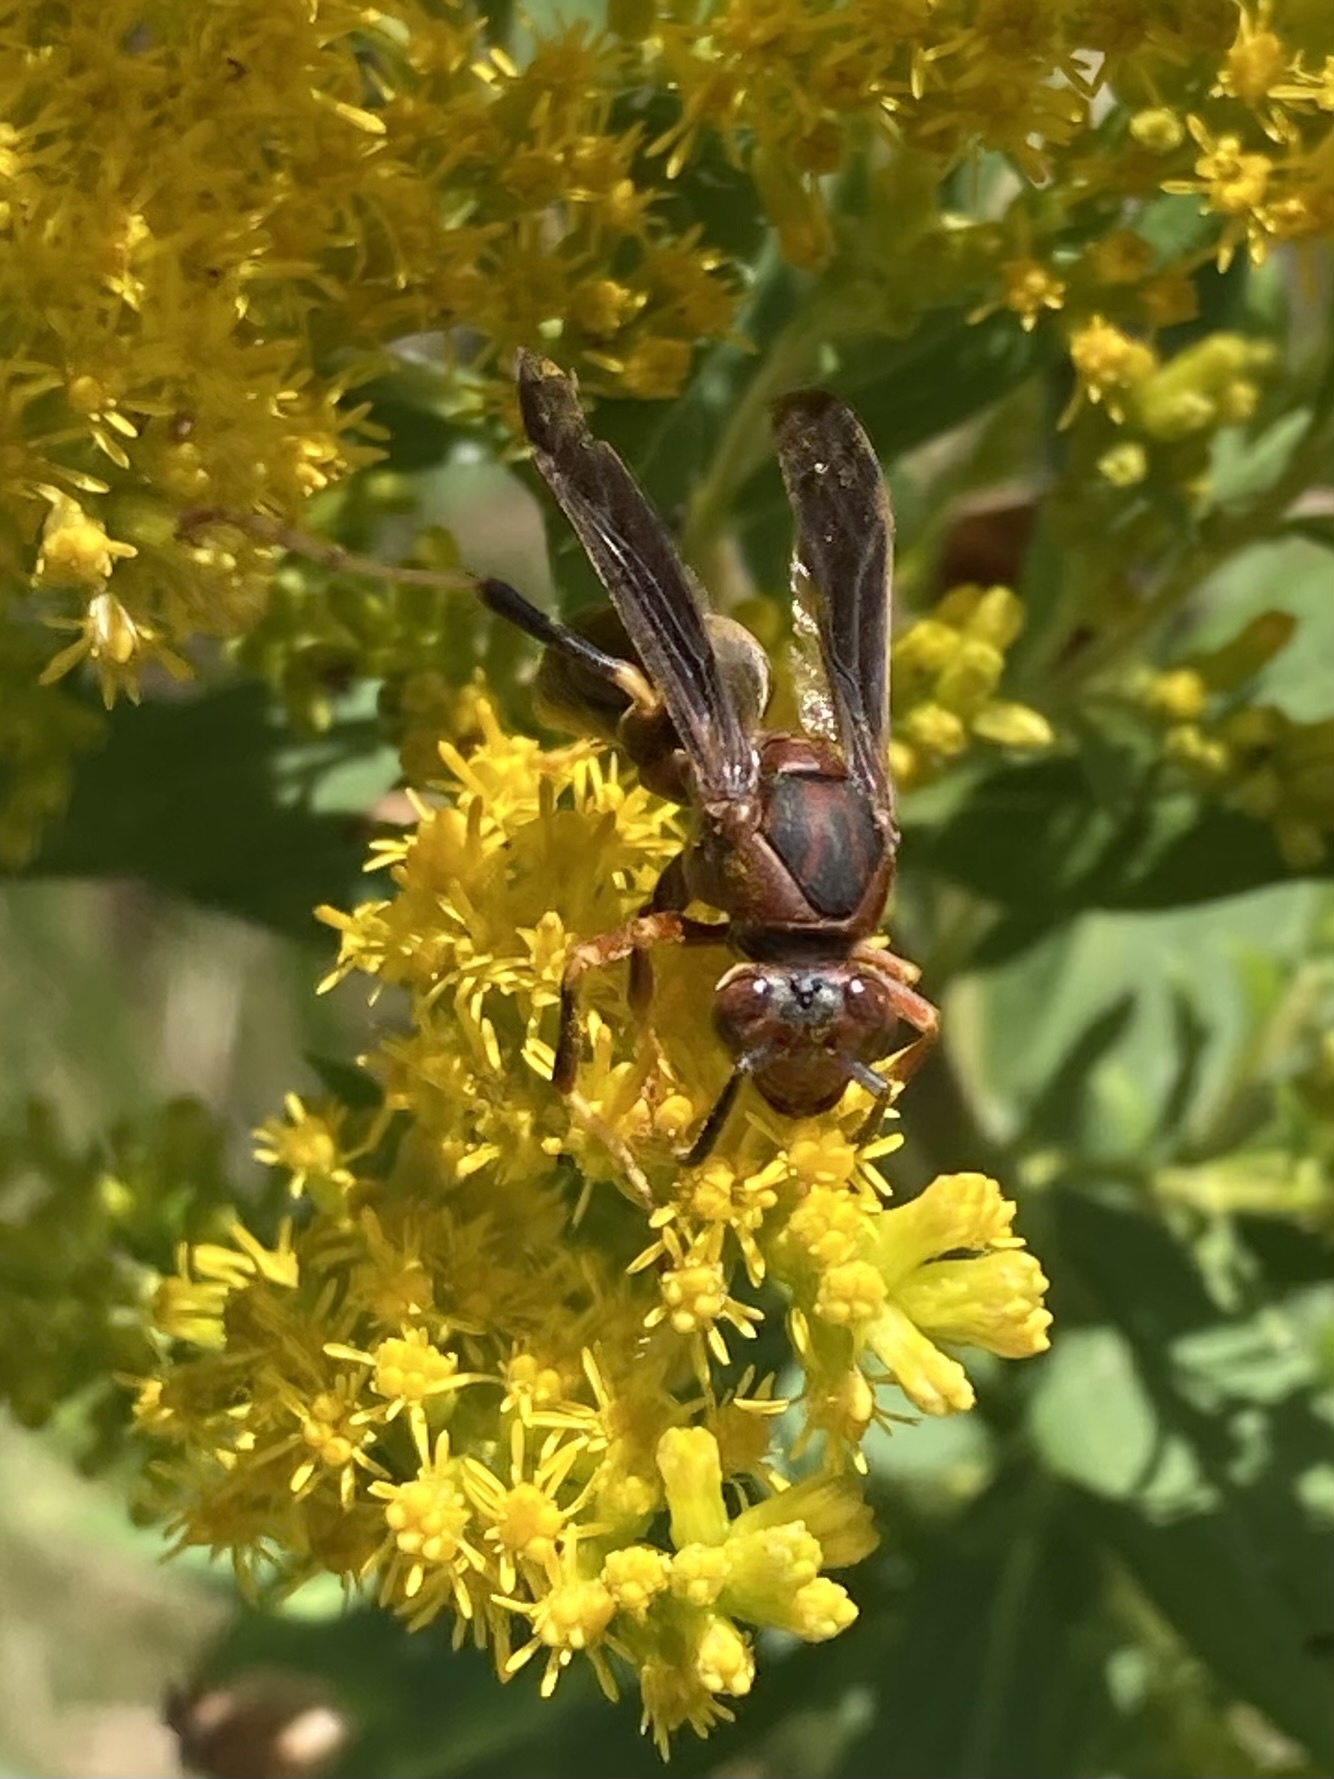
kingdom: Animalia
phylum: Arthropoda
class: Insecta
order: Hymenoptera
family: Eumenidae
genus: Polistes
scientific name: Polistes metricus
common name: Metric paper wasp
